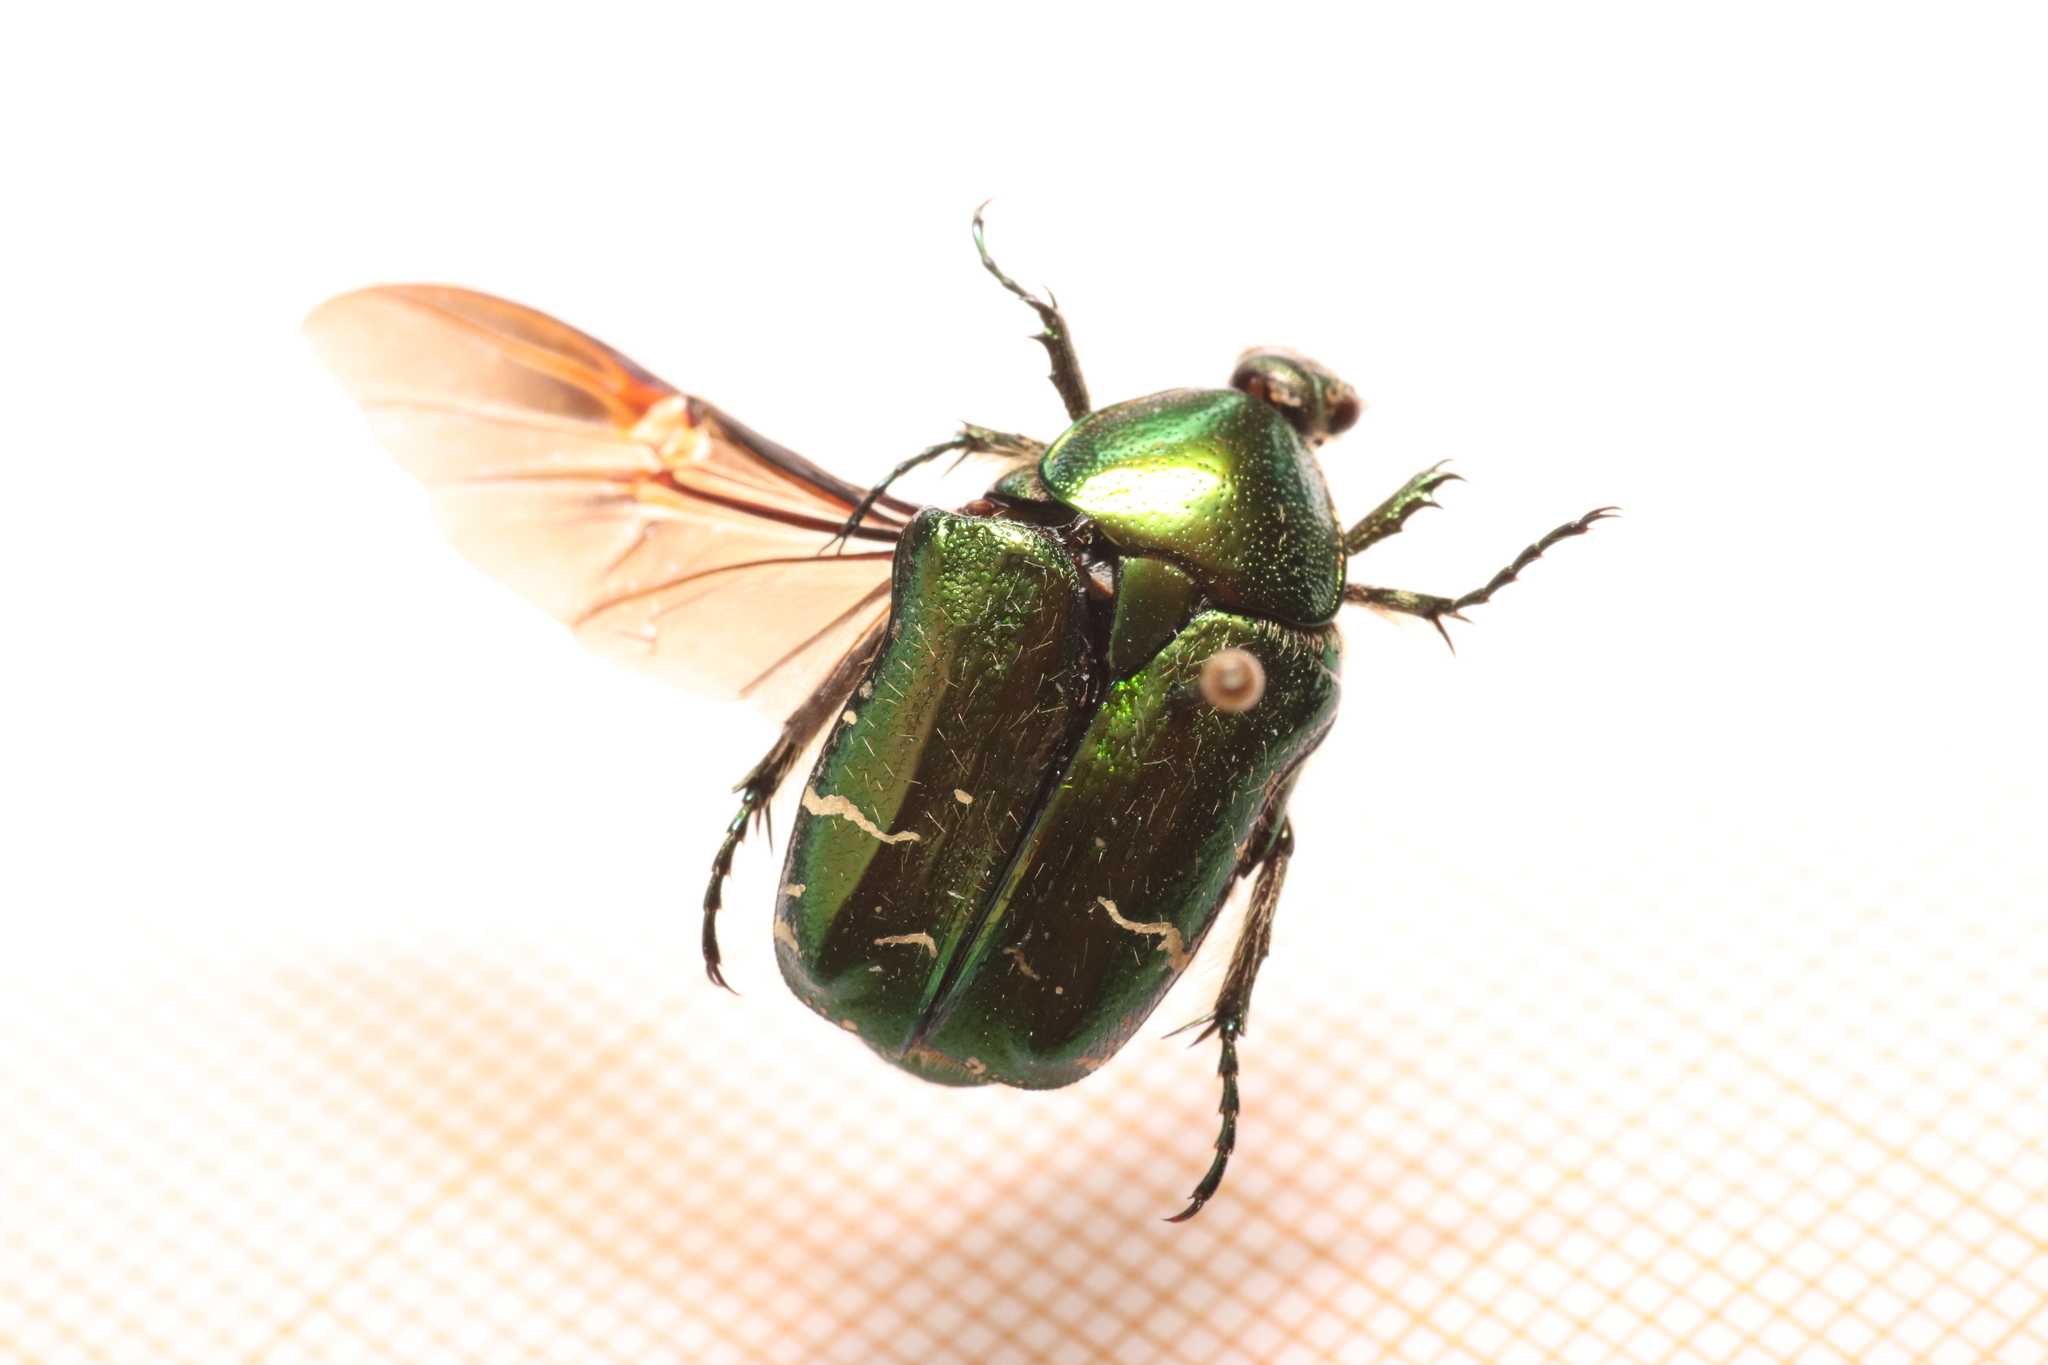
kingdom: Animalia
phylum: Arthropoda
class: Insecta
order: Coleoptera
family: Scarabaeidae
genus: Cetonia
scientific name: Cetonia aurata
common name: Rose chafer
